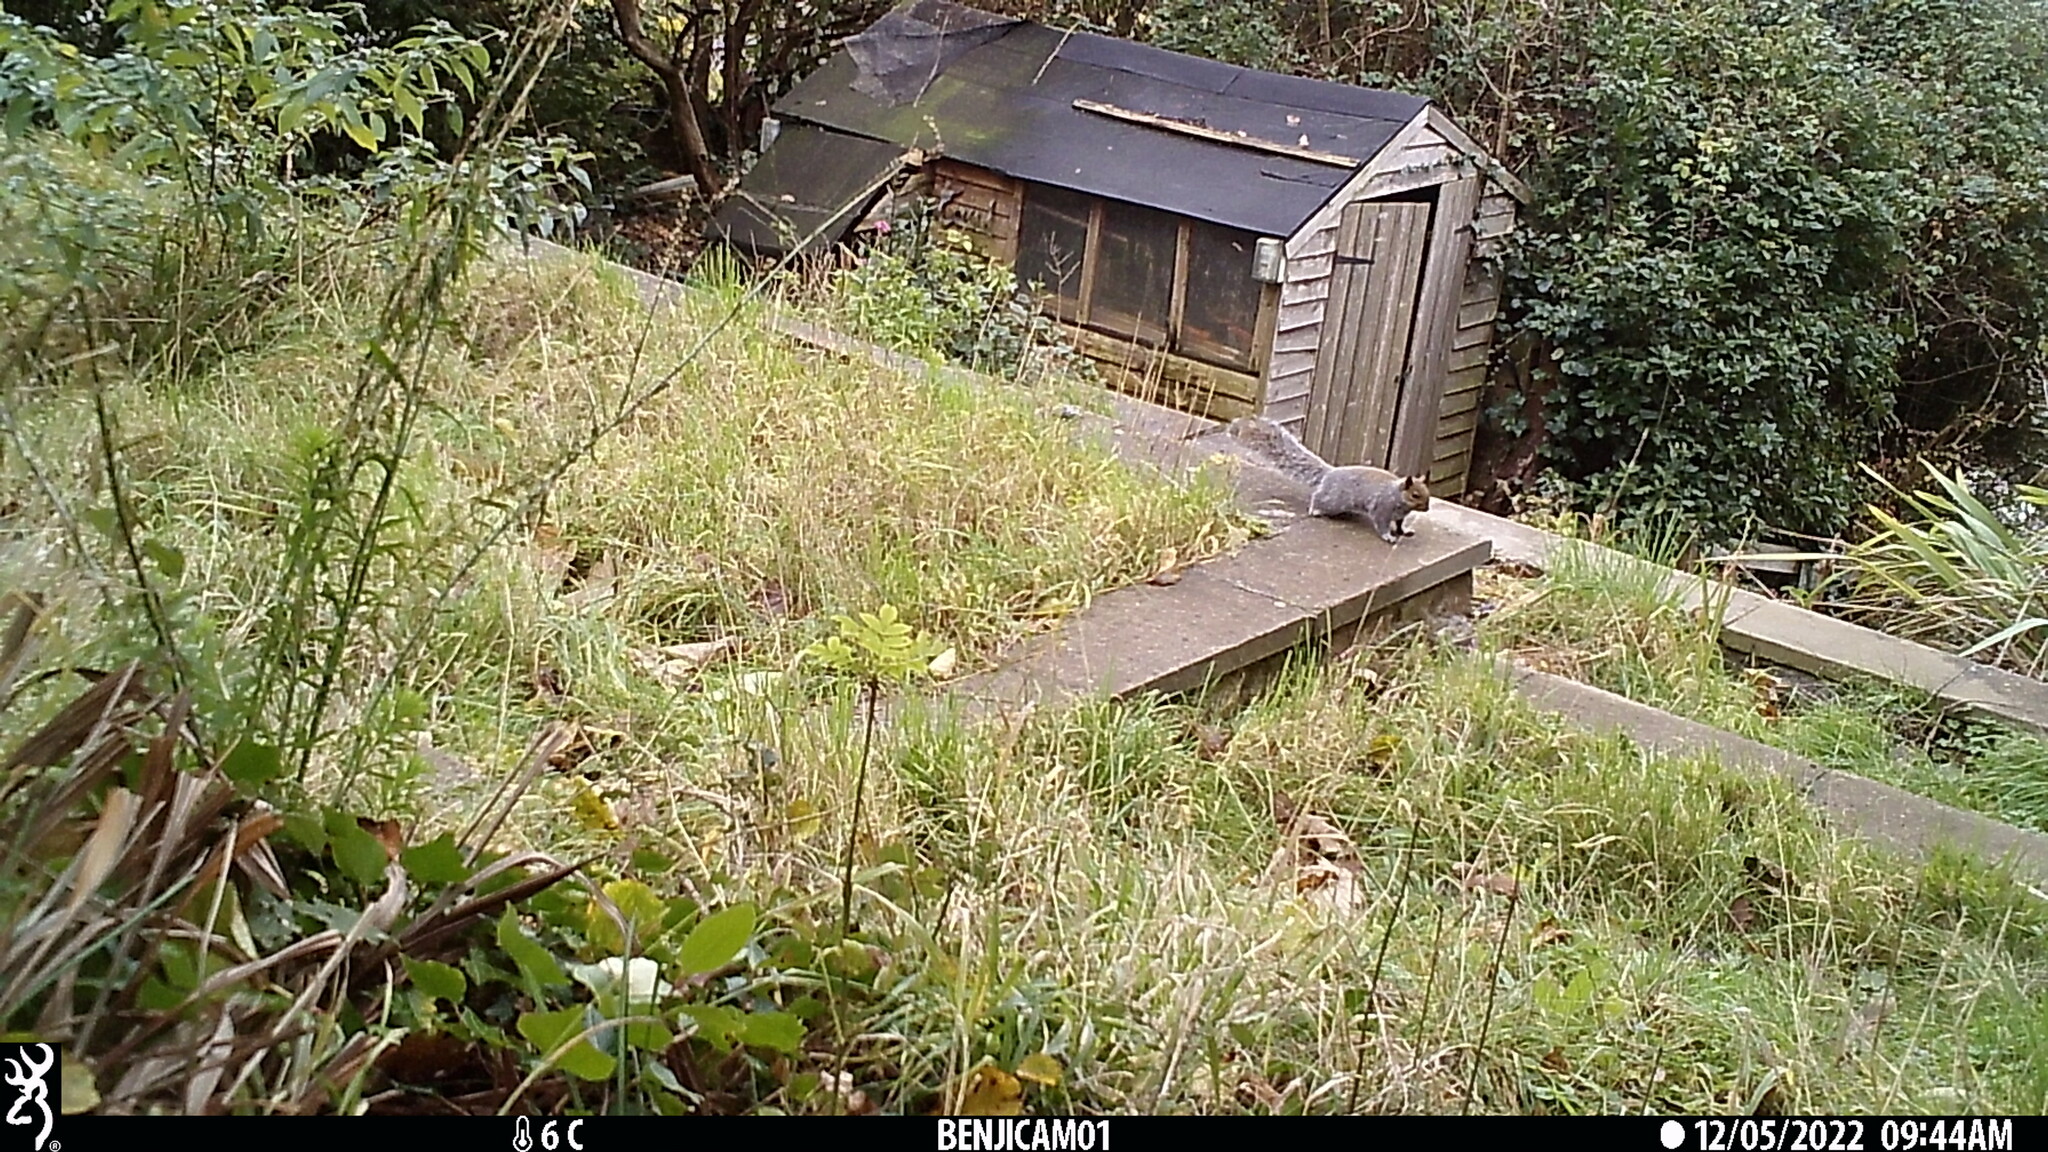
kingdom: Animalia
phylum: Chordata
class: Mammalia
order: Rodentia
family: Sciuridae
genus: Sciurus
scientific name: Sciurus carolinensis
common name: Eastern gray squirrel
